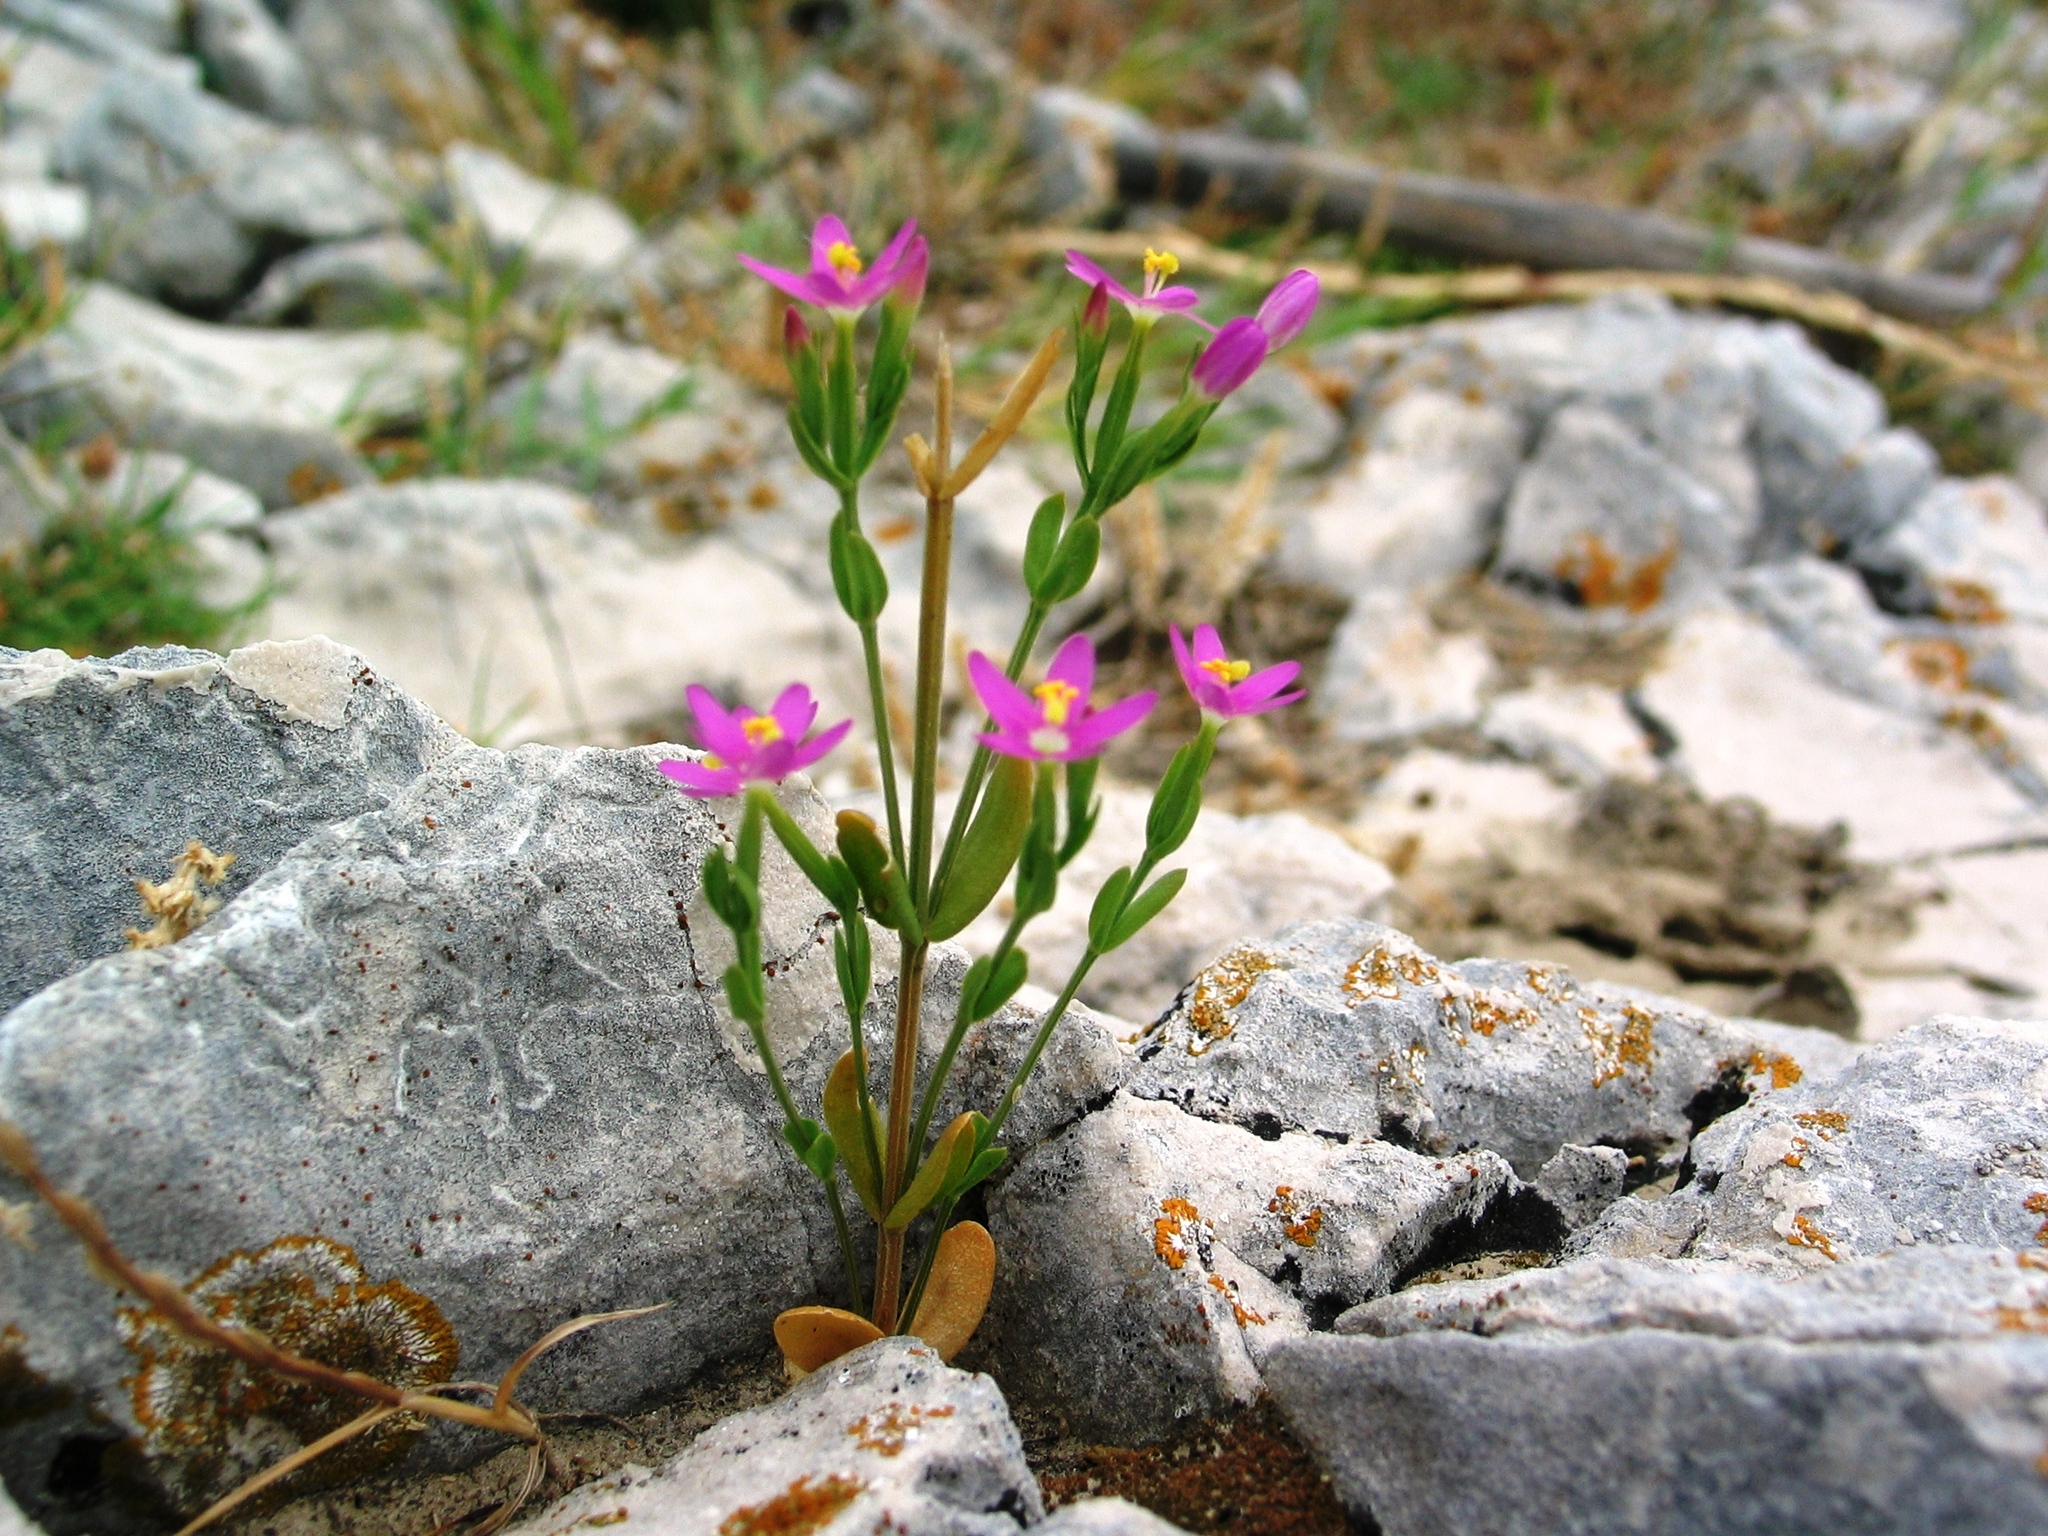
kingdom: Plantae
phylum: Tracheophyta
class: Magnoliopsida
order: Gentianales
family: Gentianaceae
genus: Centaurium
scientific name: Centaurium pulchellum
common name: Lesser centaury
